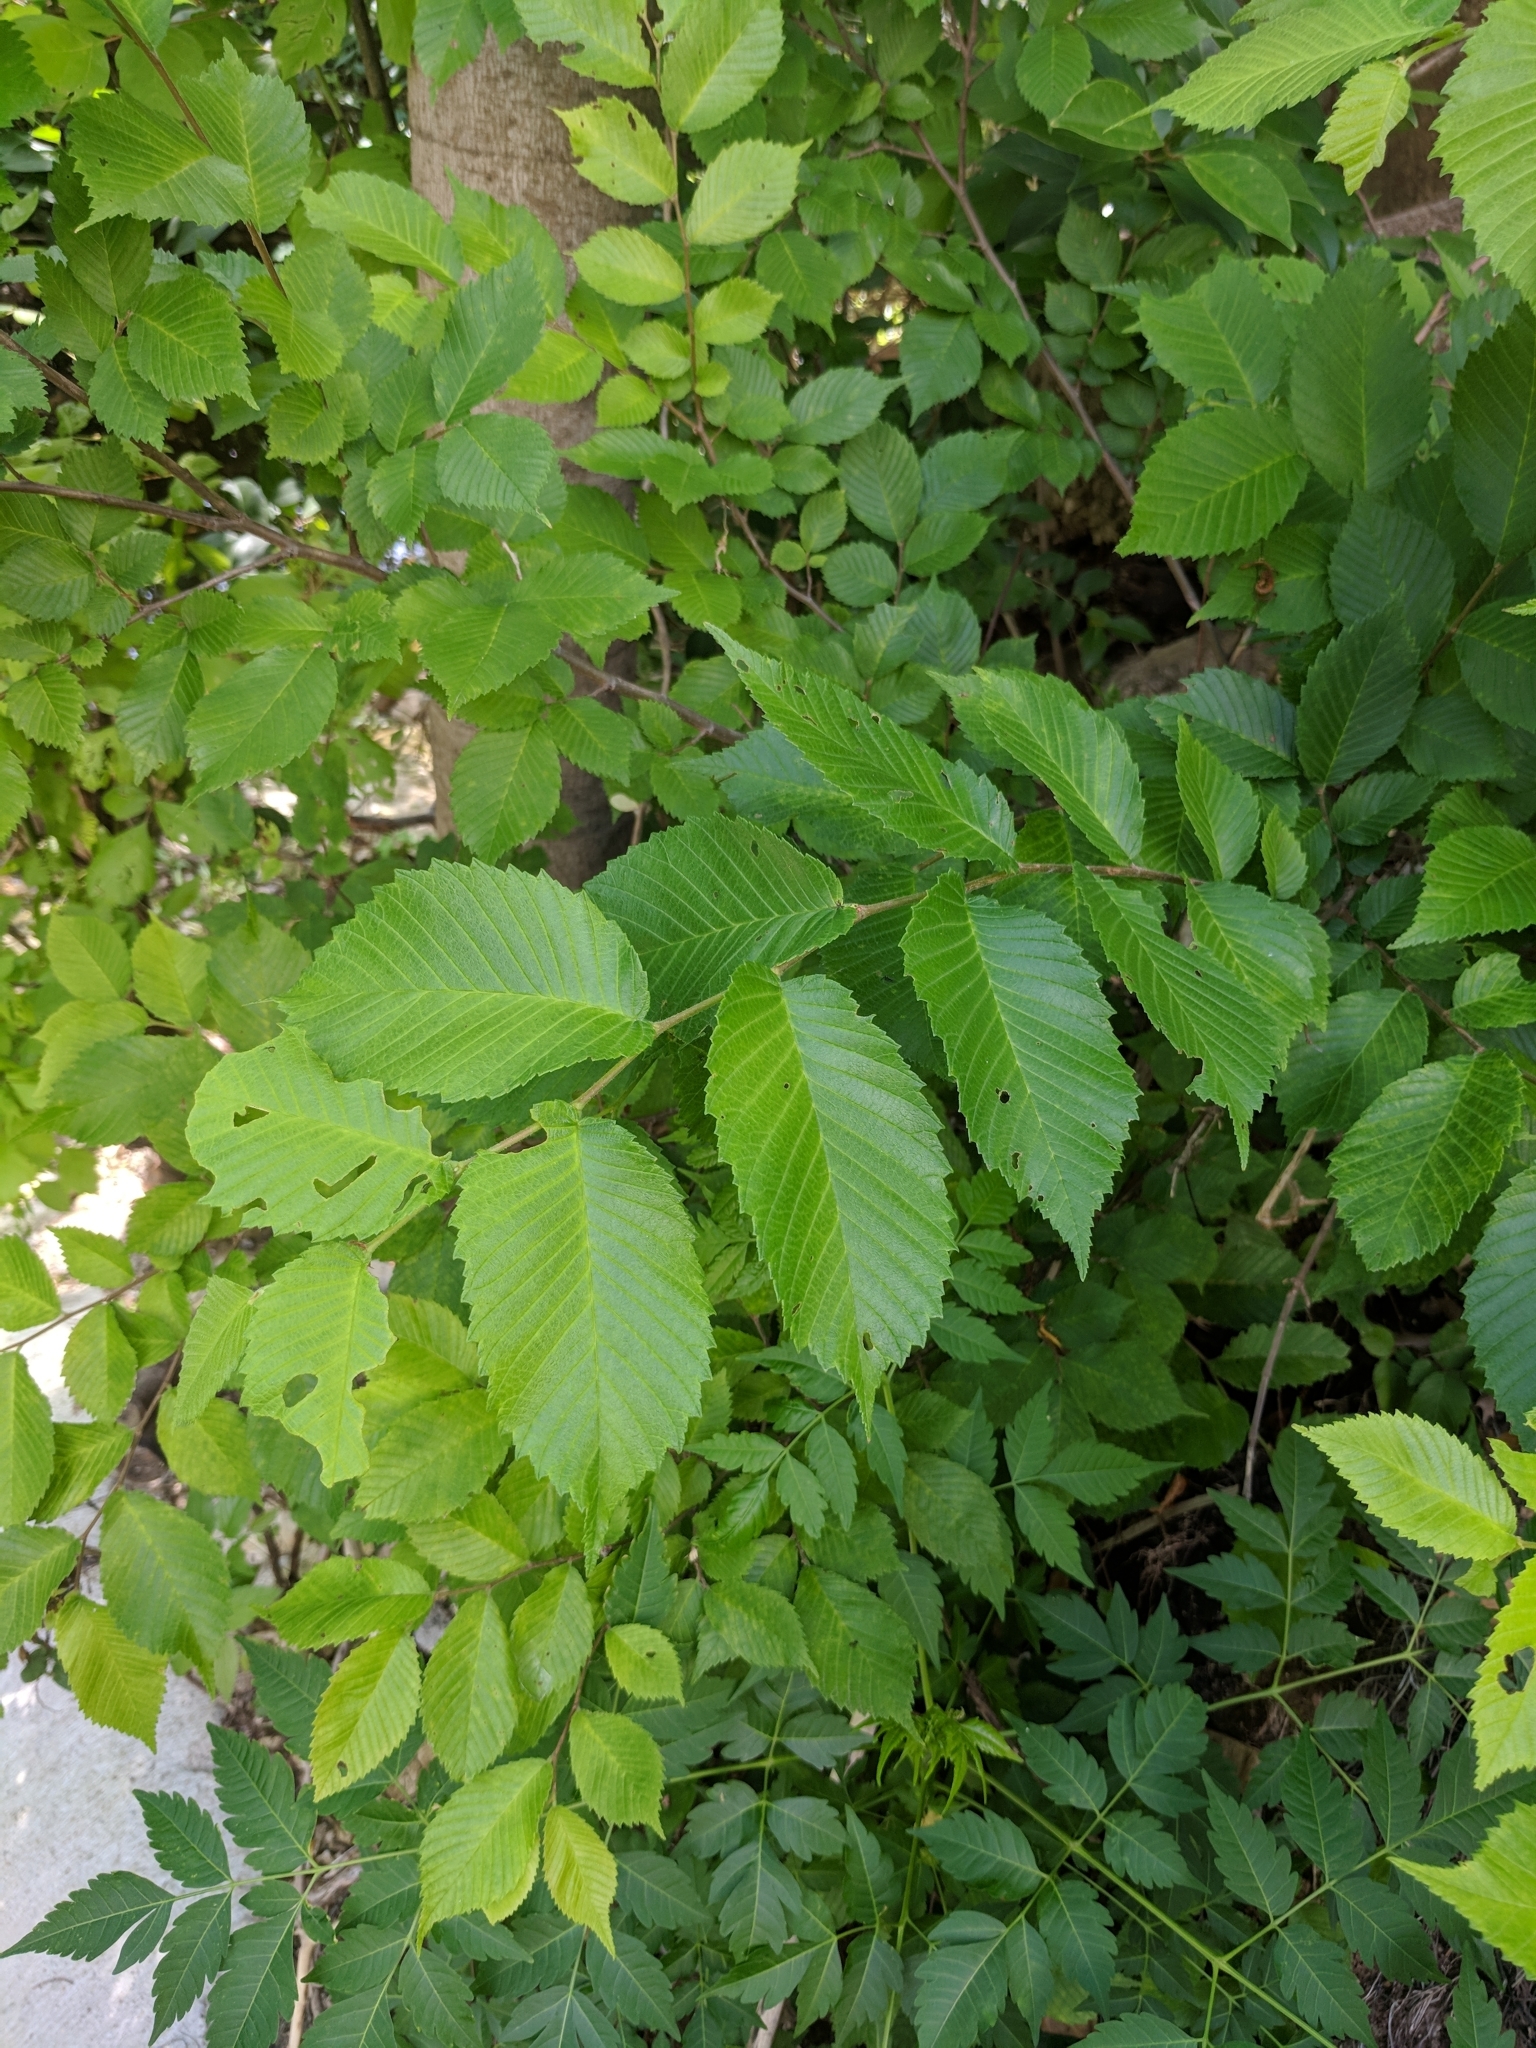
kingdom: Plantae
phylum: Tracheophyta
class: Magnoliopsida
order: Rosales
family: Ulmaceae
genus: Ulmus
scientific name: Ulmus americana
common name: American elm
